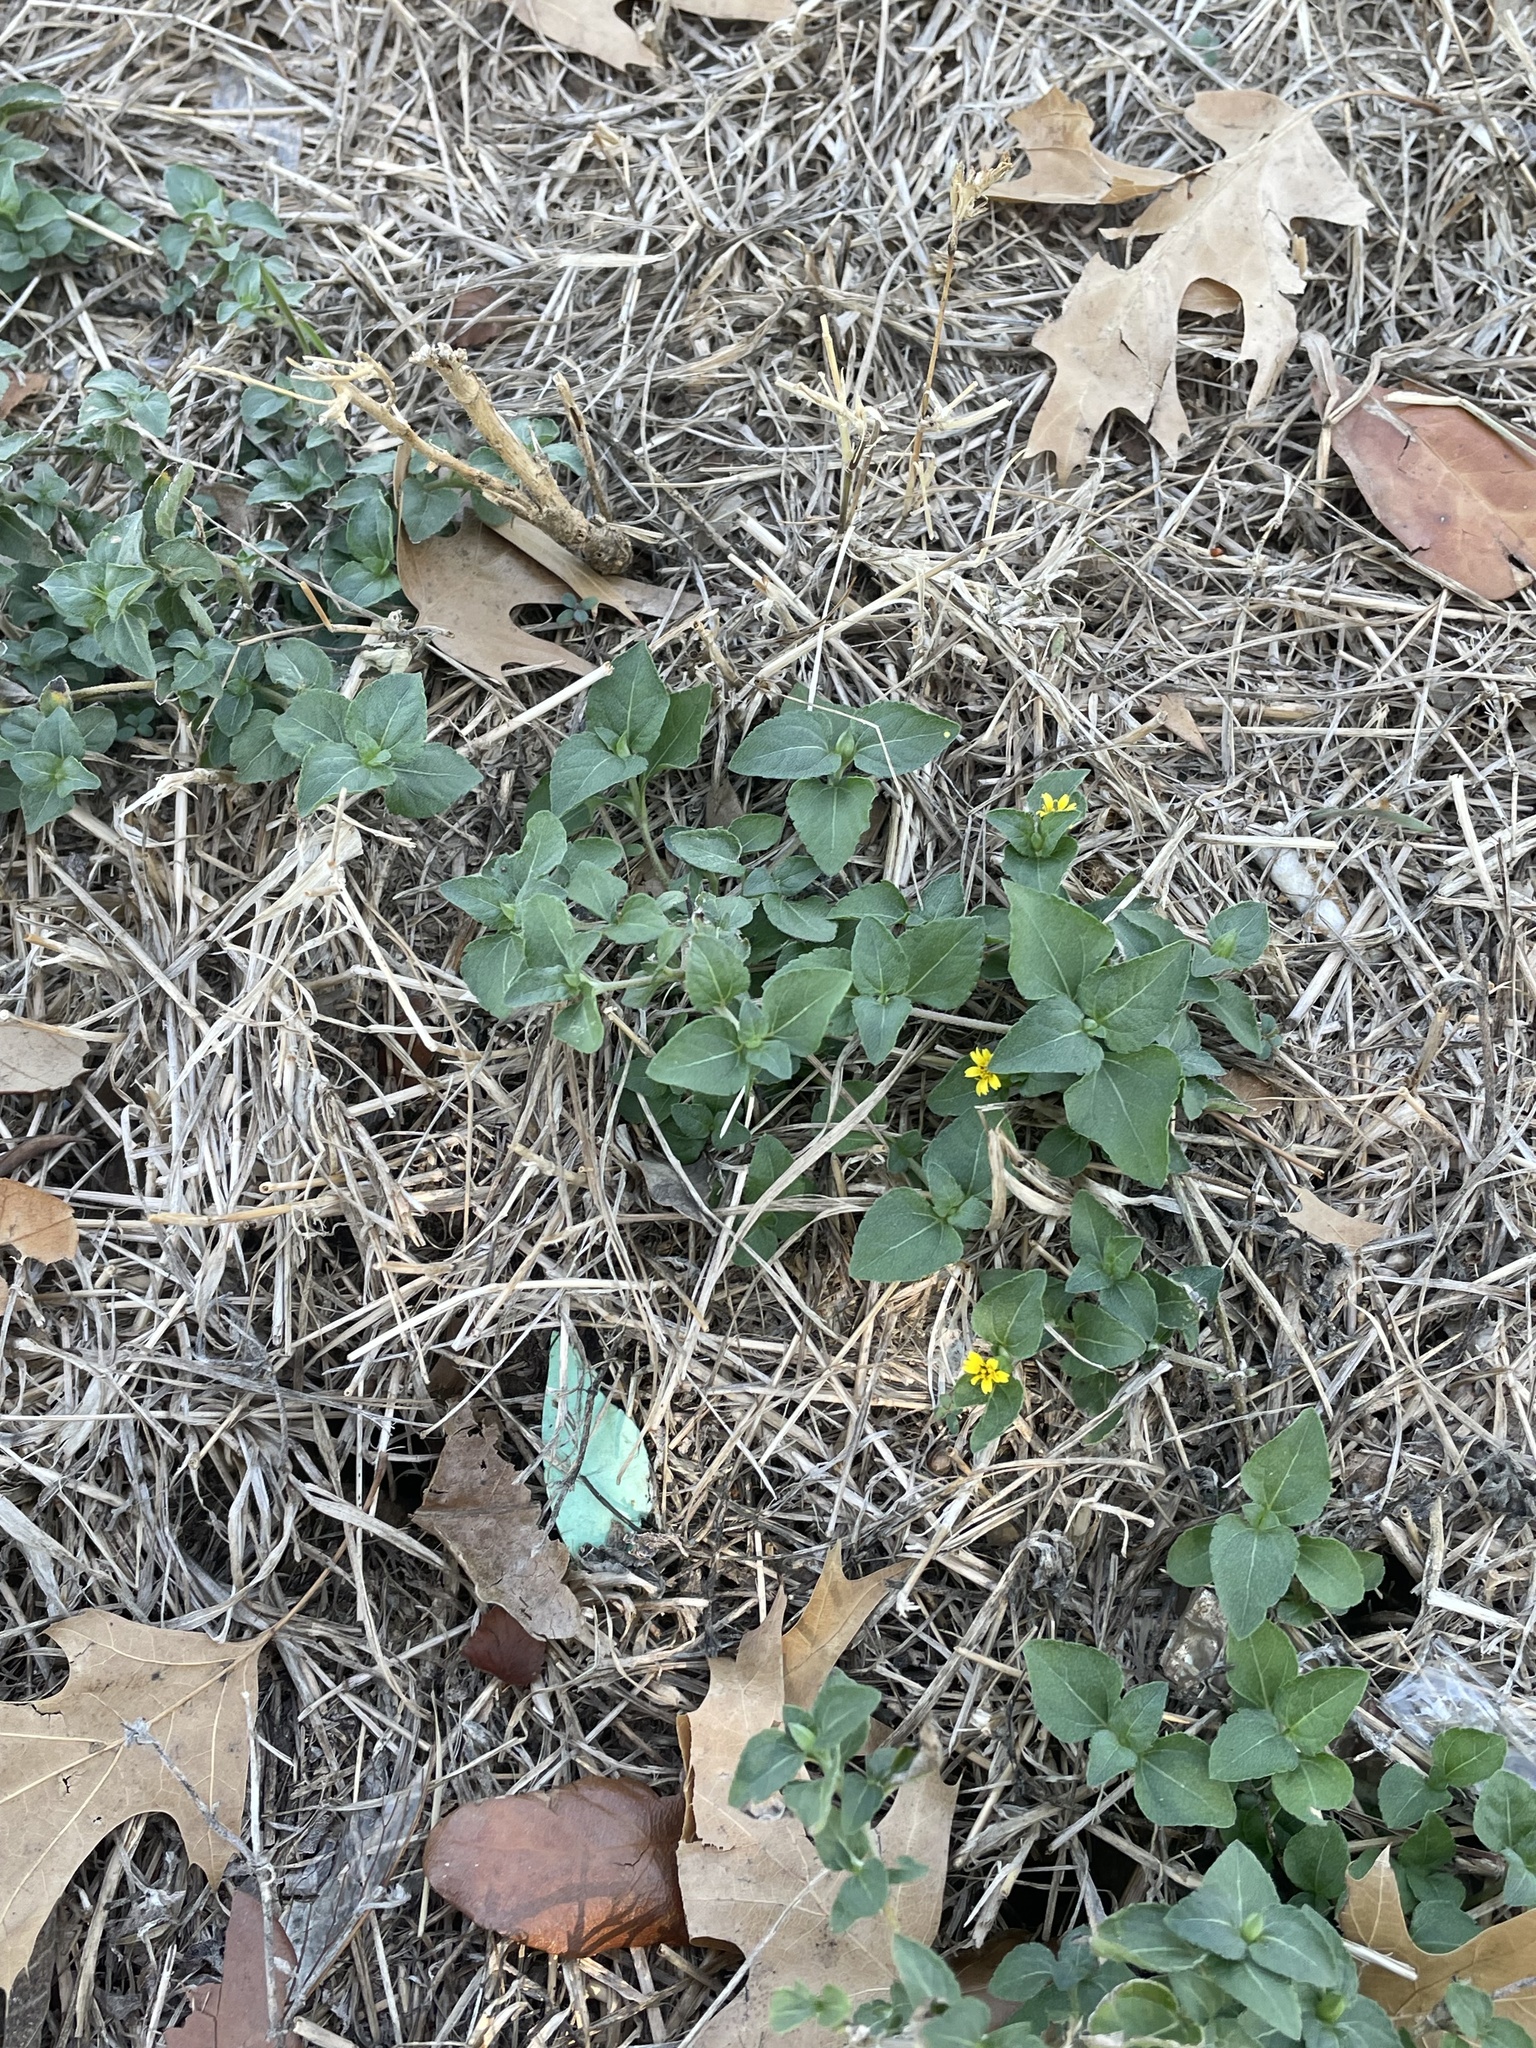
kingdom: Plantae
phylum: Tracheophyta
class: Magnoliopsida
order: Asterales
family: Asteraceae
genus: Calyptocarpus
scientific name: Calyptocarpus vialis
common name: Straggler daisy
